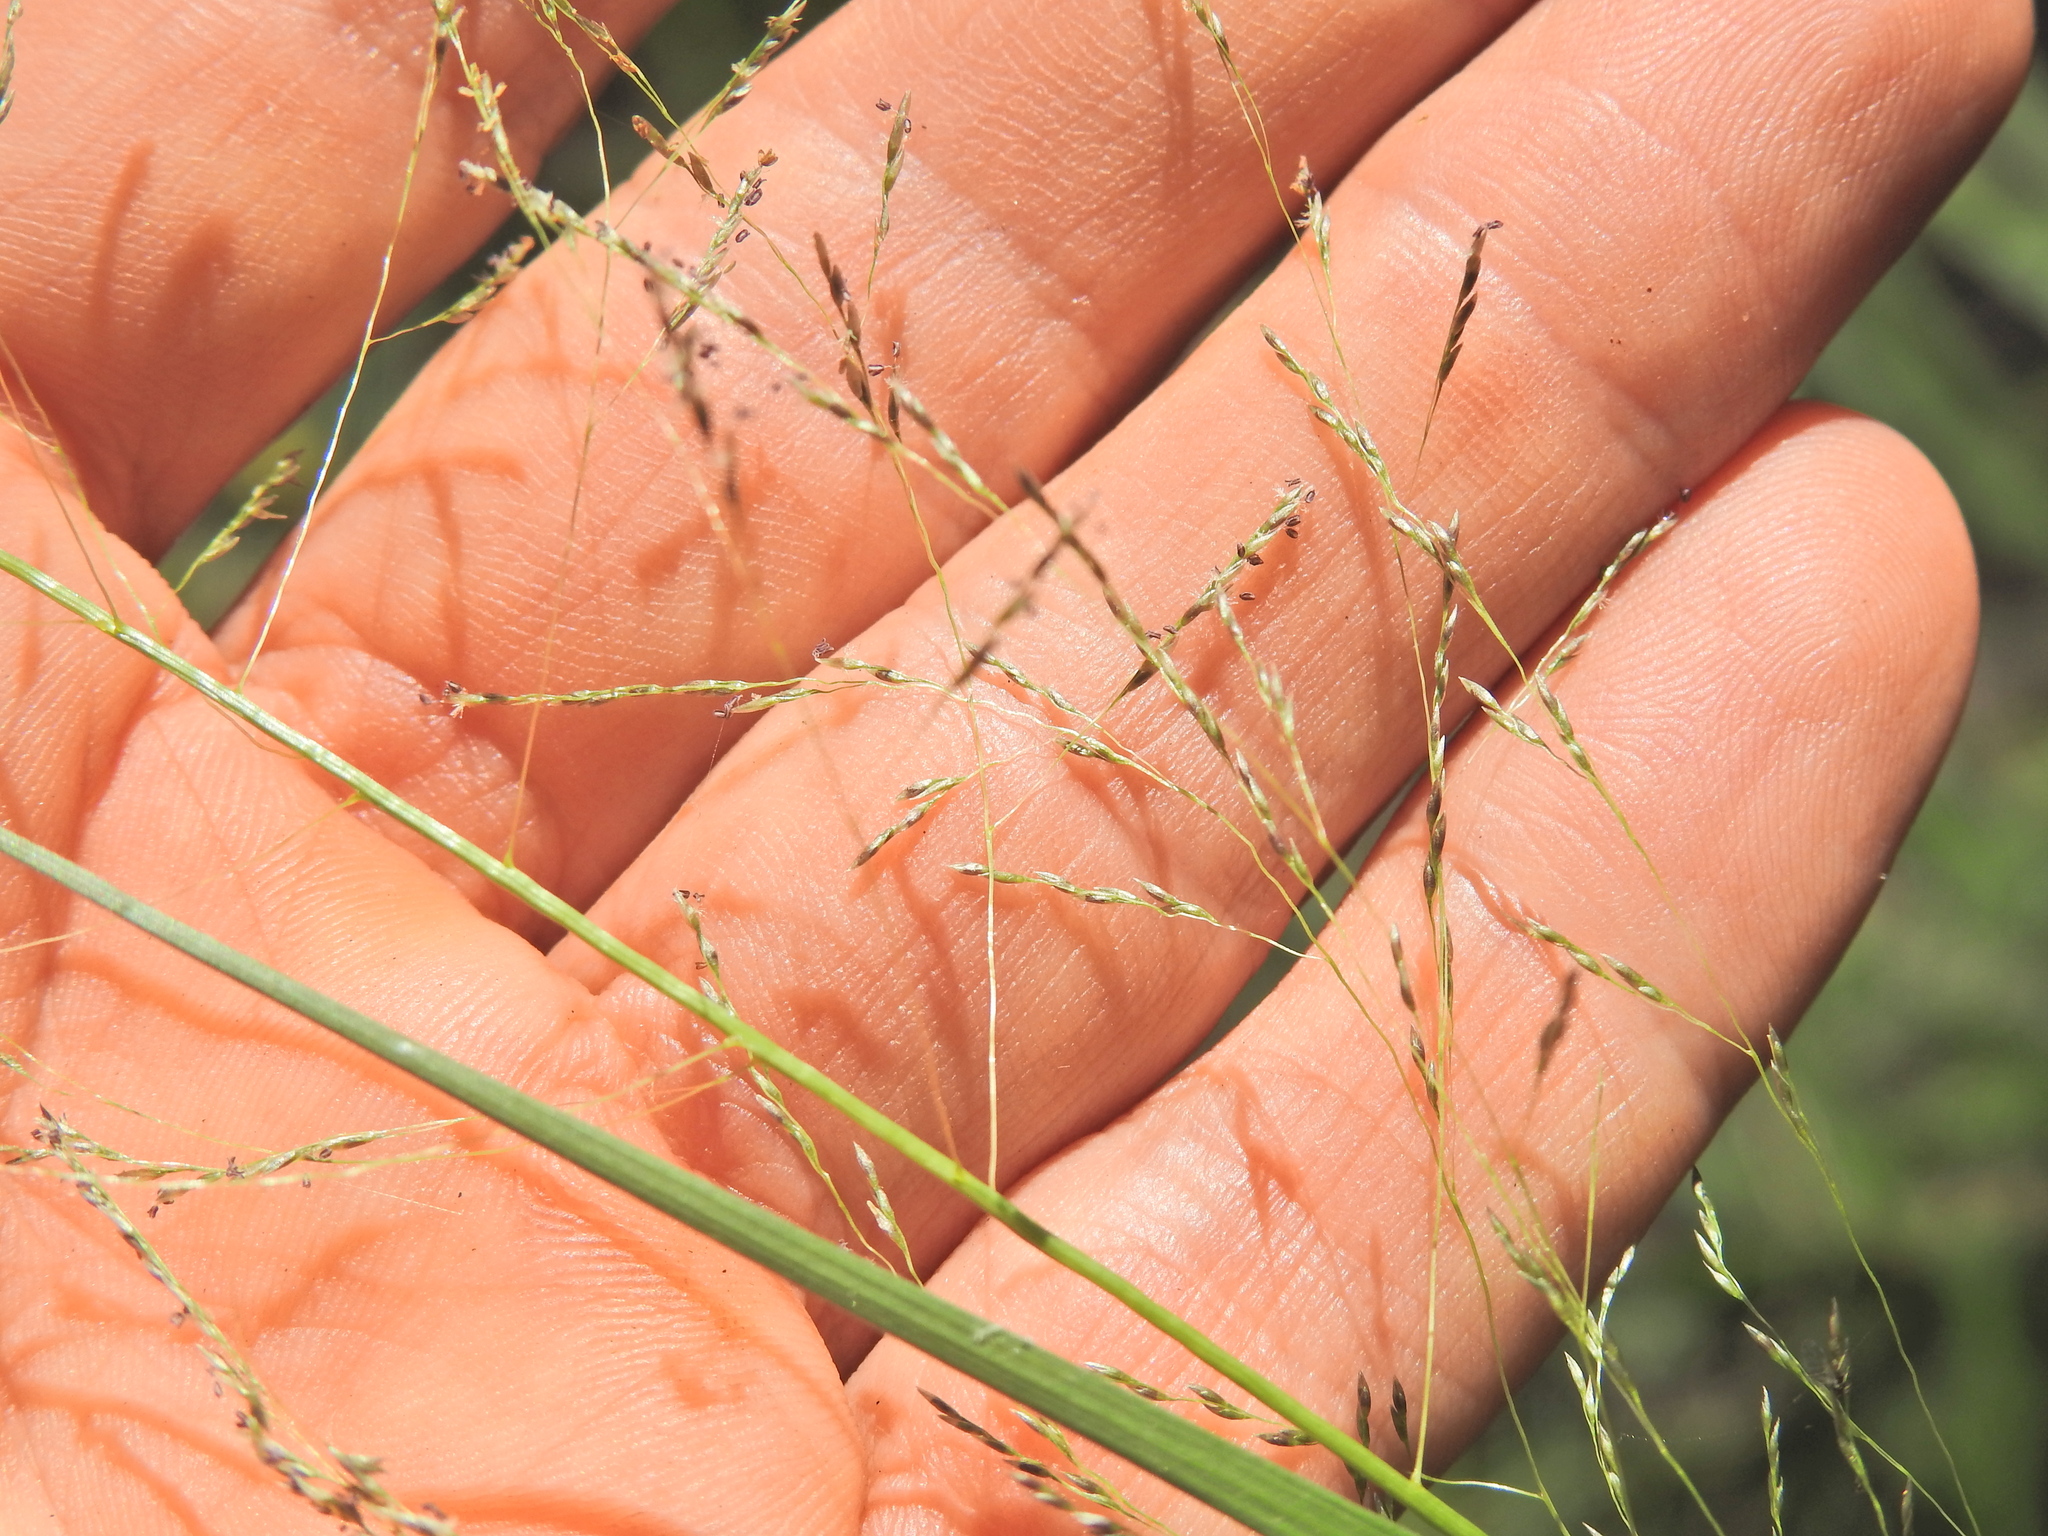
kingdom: Plantae
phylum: Tracheophyta
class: Liliopsida
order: Poales
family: Poaceae
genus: Sporobolus
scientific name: Sporobolus laxus
